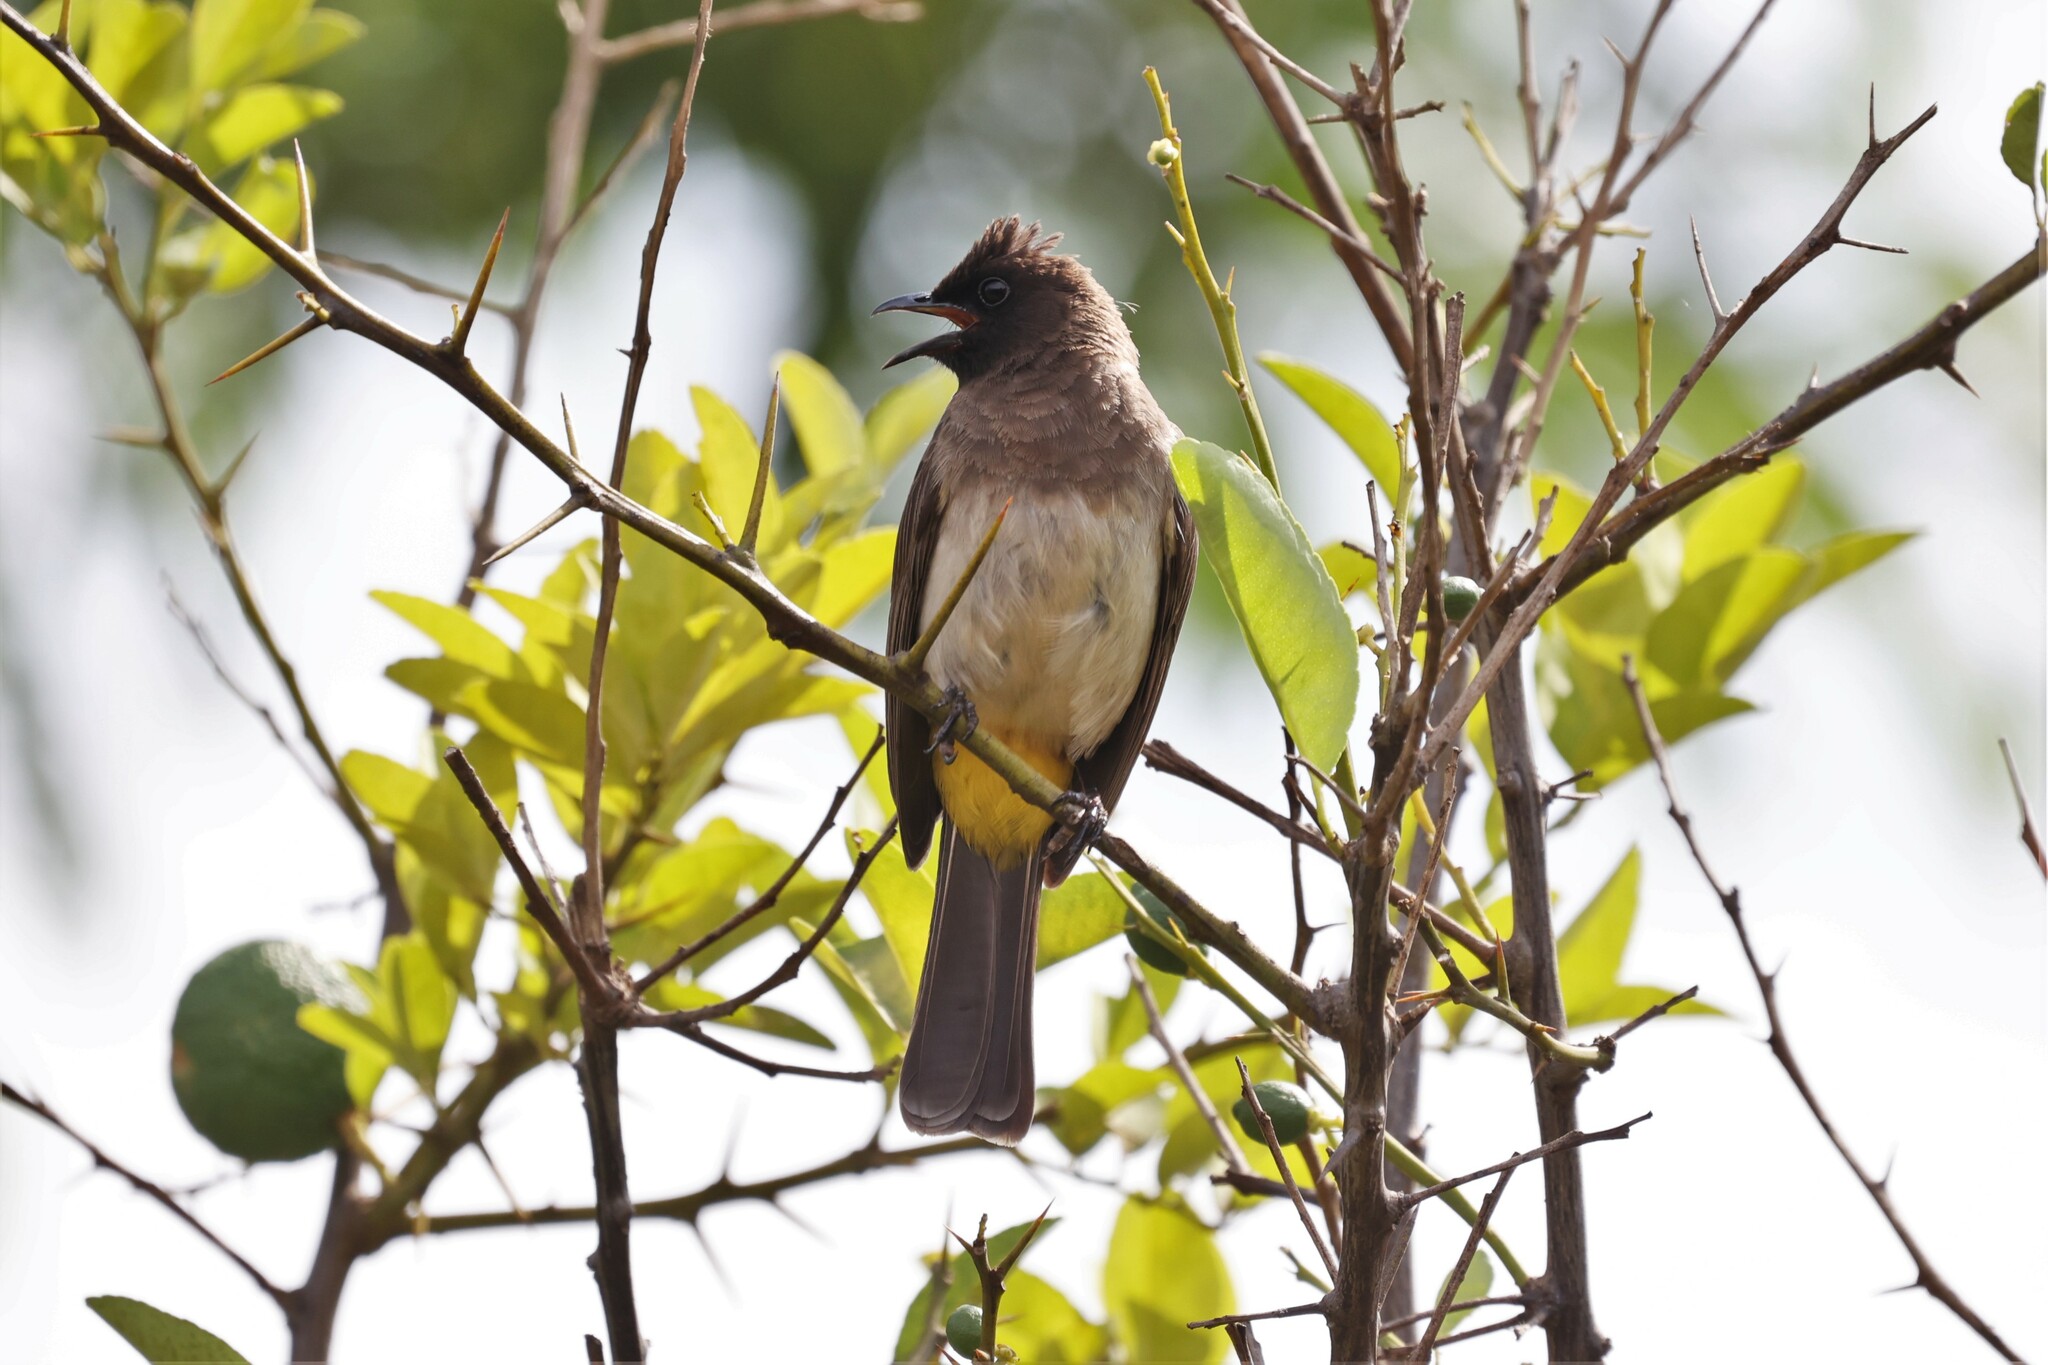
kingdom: Animalia
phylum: Chordata
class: Aves
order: Passeriformes
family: Pycnonotidae
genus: Pycnonotus
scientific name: Pycnonotus barbatus
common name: Common bulbul
